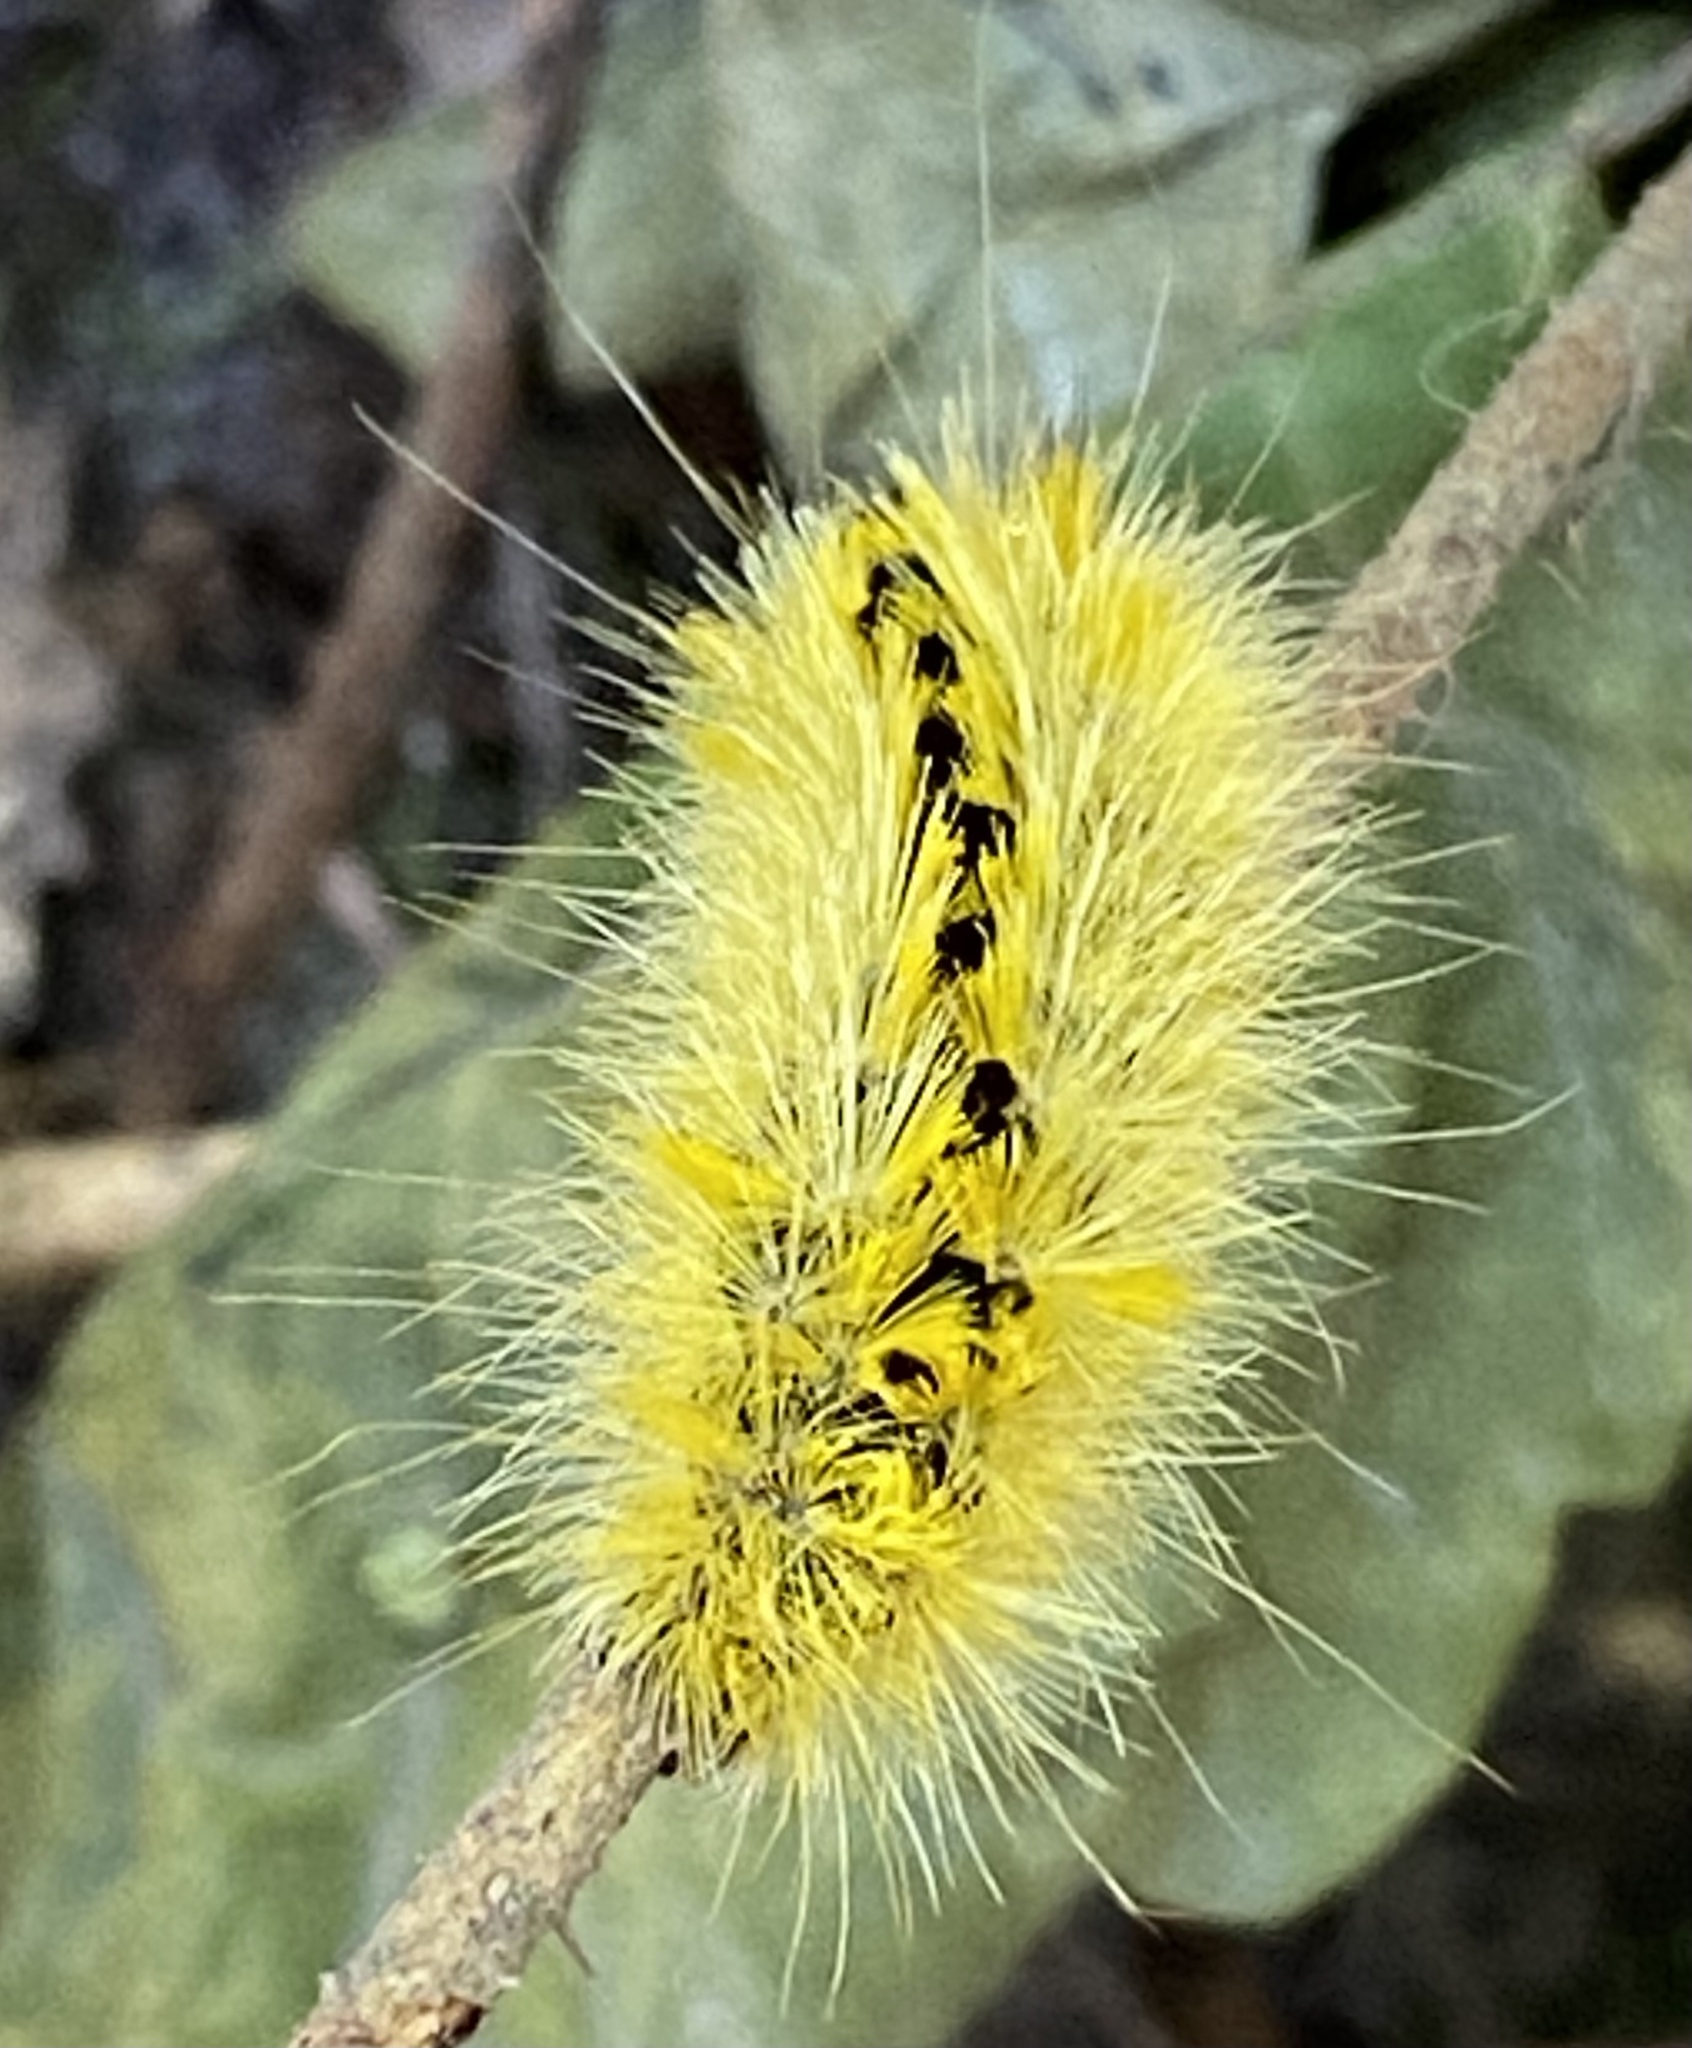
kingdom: Animalia
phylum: Arthropoda
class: Insecta
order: Lepidoptera
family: Erebidae
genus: Lophocampa
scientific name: Lophocampa argentata
